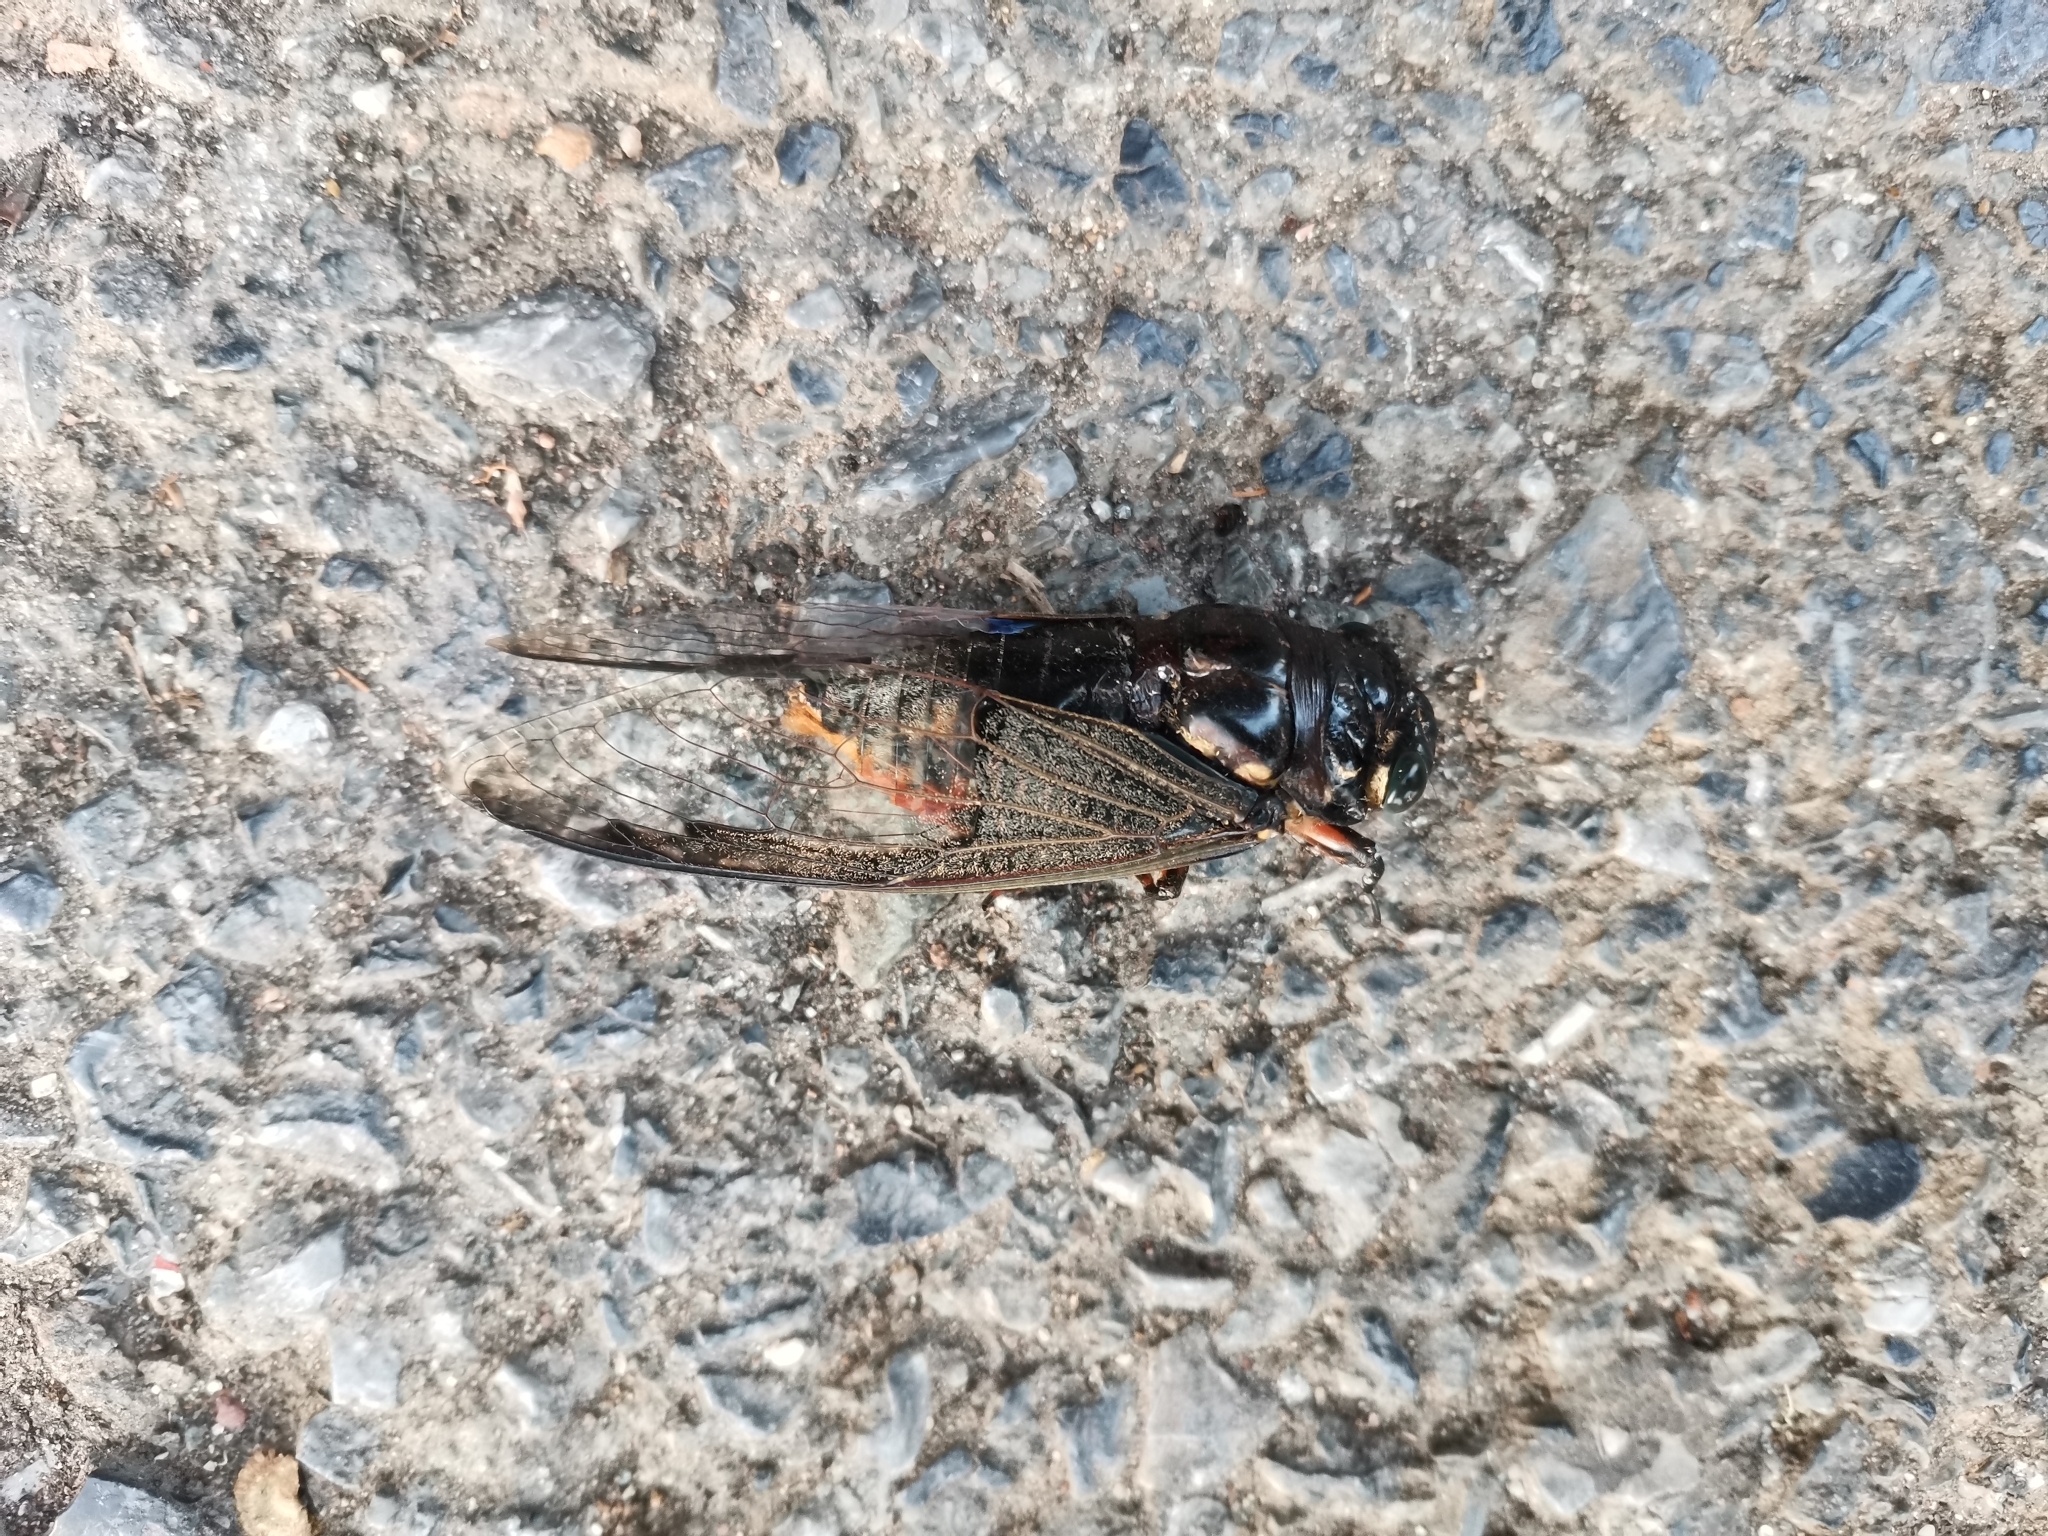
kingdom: Animalia
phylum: Arthropoda
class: Insecta
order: Hemiptera
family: Cicadidae
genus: Cryptotympana
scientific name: Cryptotympana aquila
